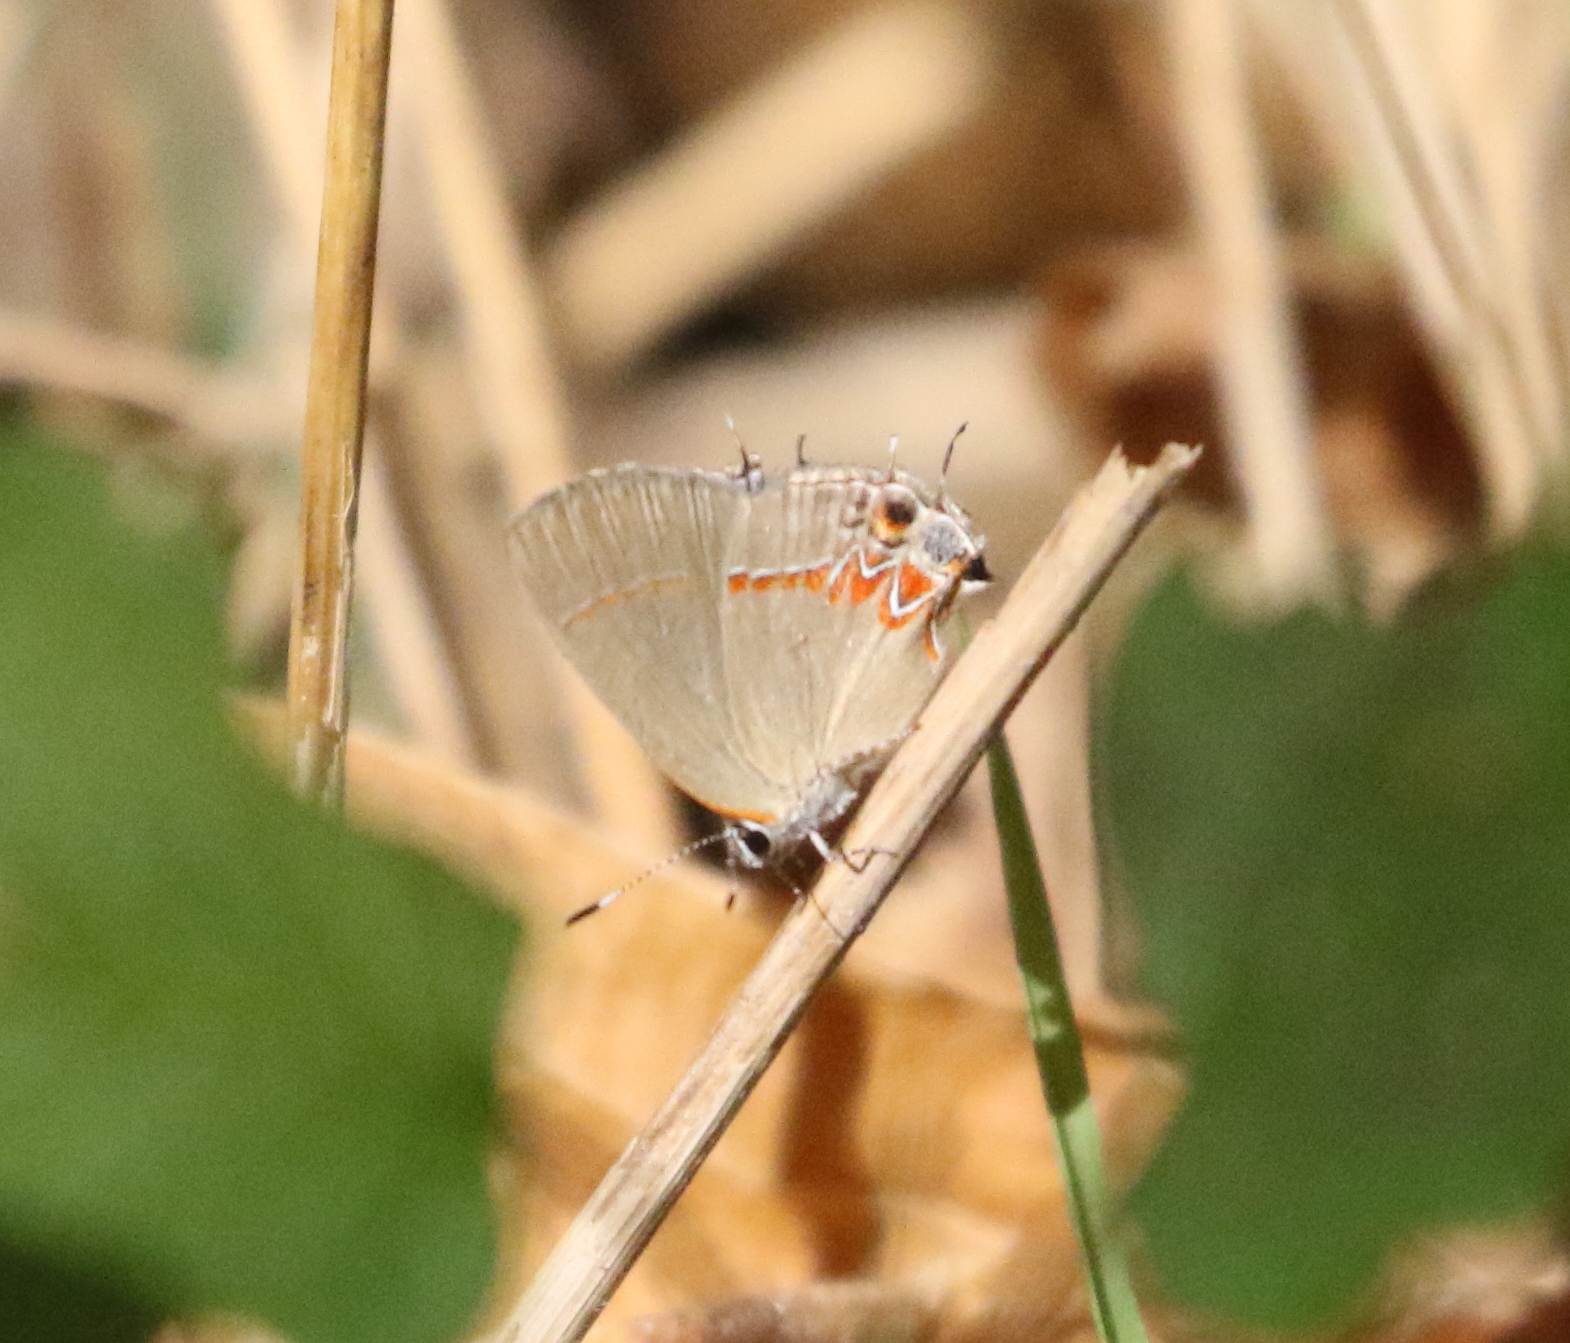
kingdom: Animalia
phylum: Arthropoda
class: Insecta
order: Lepidoptera
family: Lycaenidae
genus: Calycopis
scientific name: Calycopis isobeon
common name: Dusky-blue groundstreak
